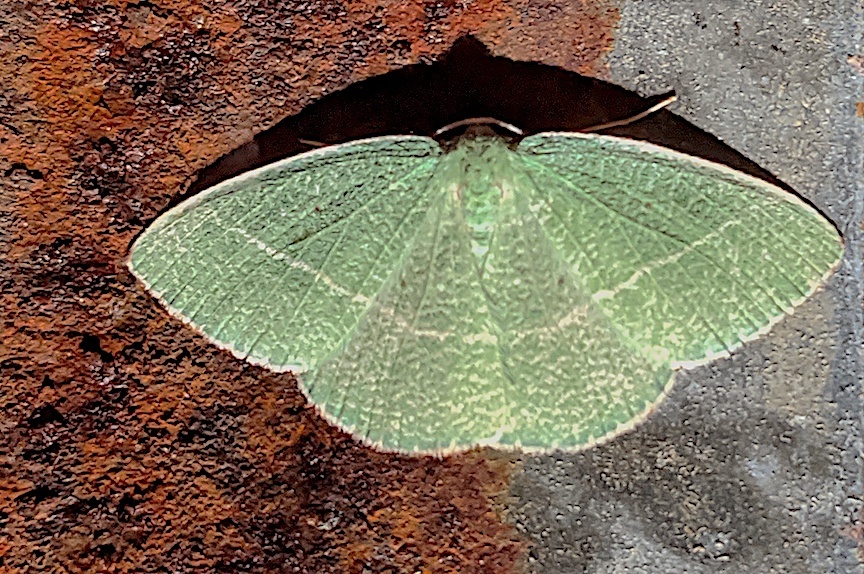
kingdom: Animalia
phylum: Arthropoda
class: Insecta
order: Lepidoptera
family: Geometridae
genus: Nemoria
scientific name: Nemoria pistaciaria
